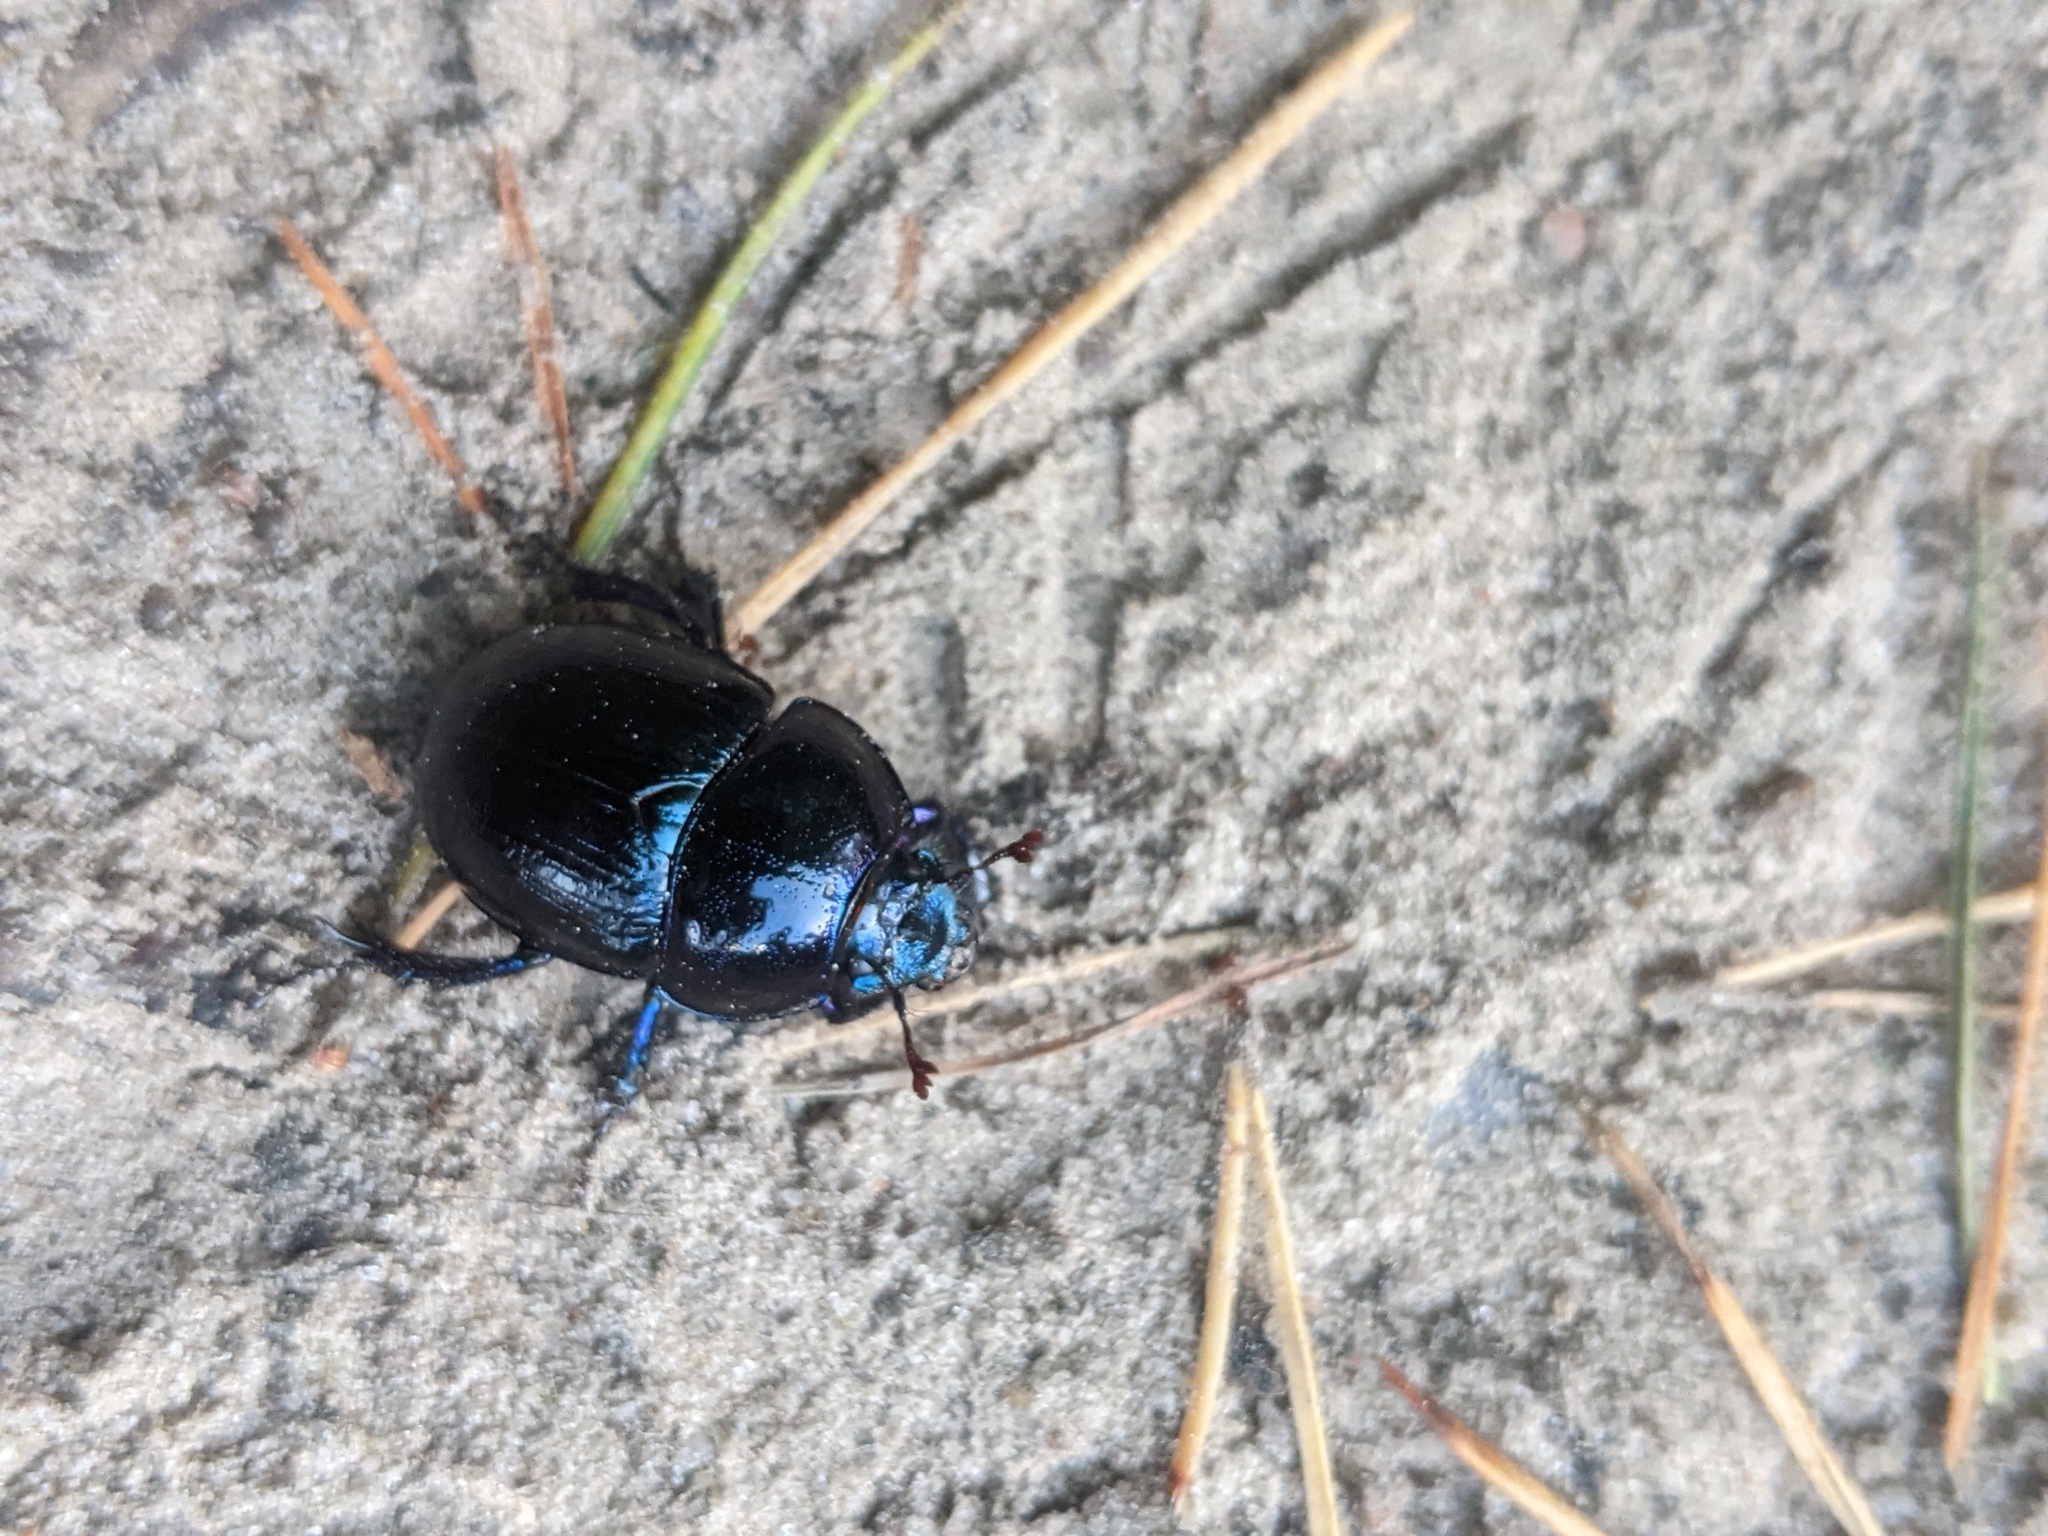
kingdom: Animalia
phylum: Arthropoda
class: Insecta
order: Coleoptera
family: Geotrupidae
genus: Anoplotrupes
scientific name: Anoplotrupes stercorosus
